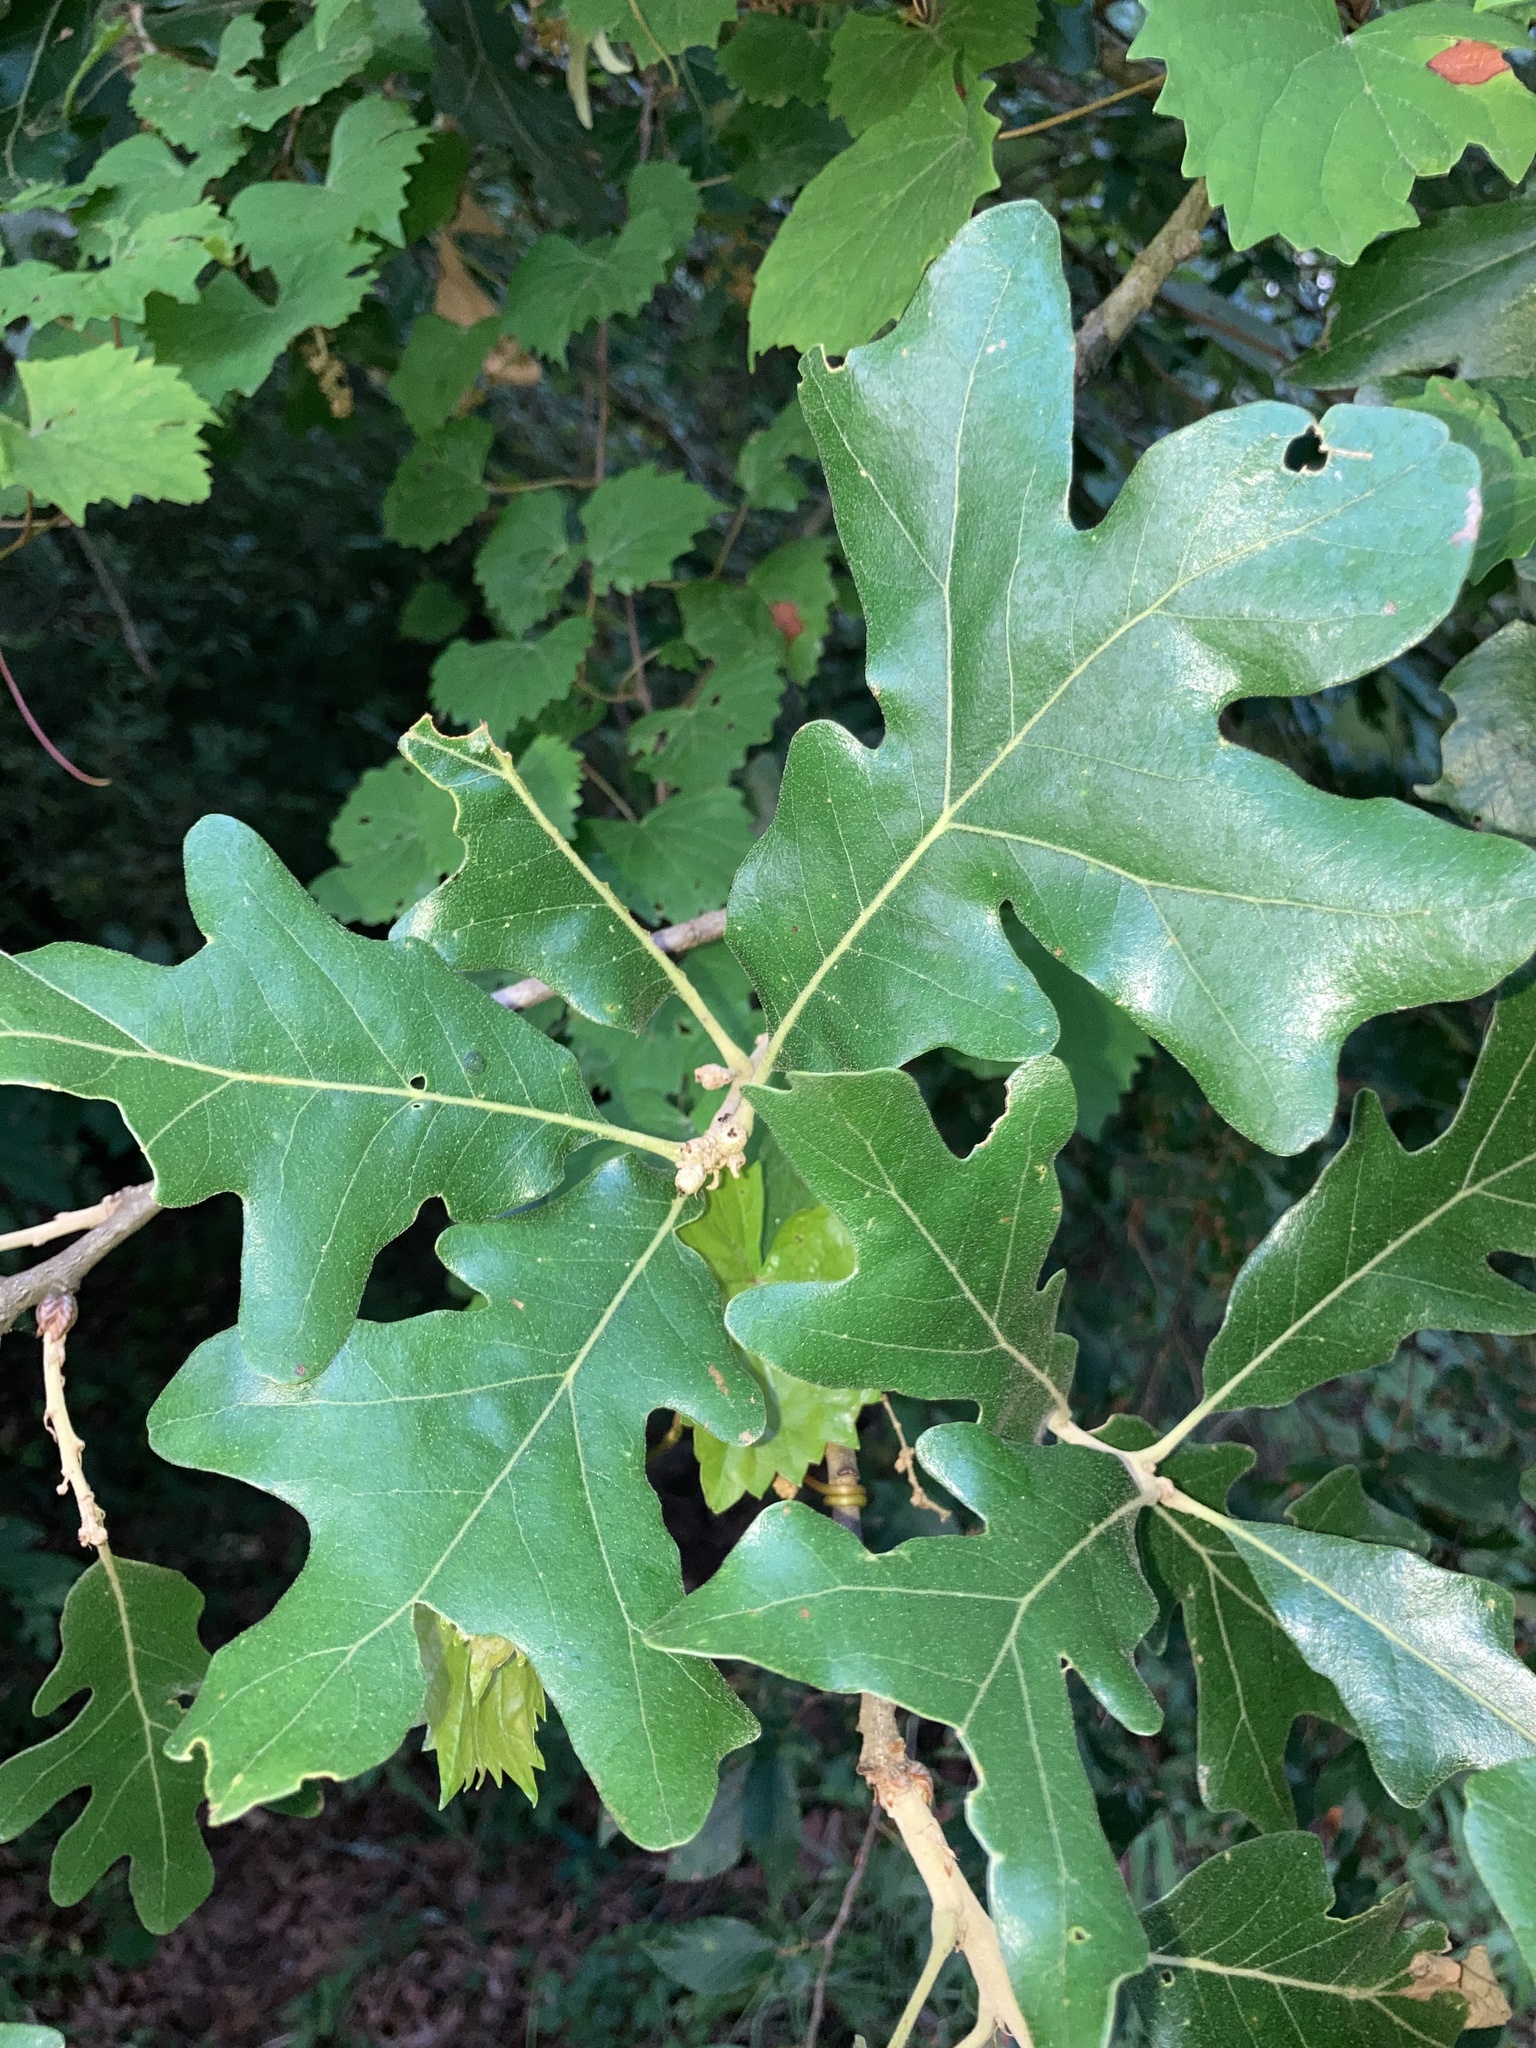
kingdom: Plantae
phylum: Tracheophyta
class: Magnoliopsida
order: Fagales
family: Fagaceae
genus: Quercus
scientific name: Quercus stellata
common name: Post oak
